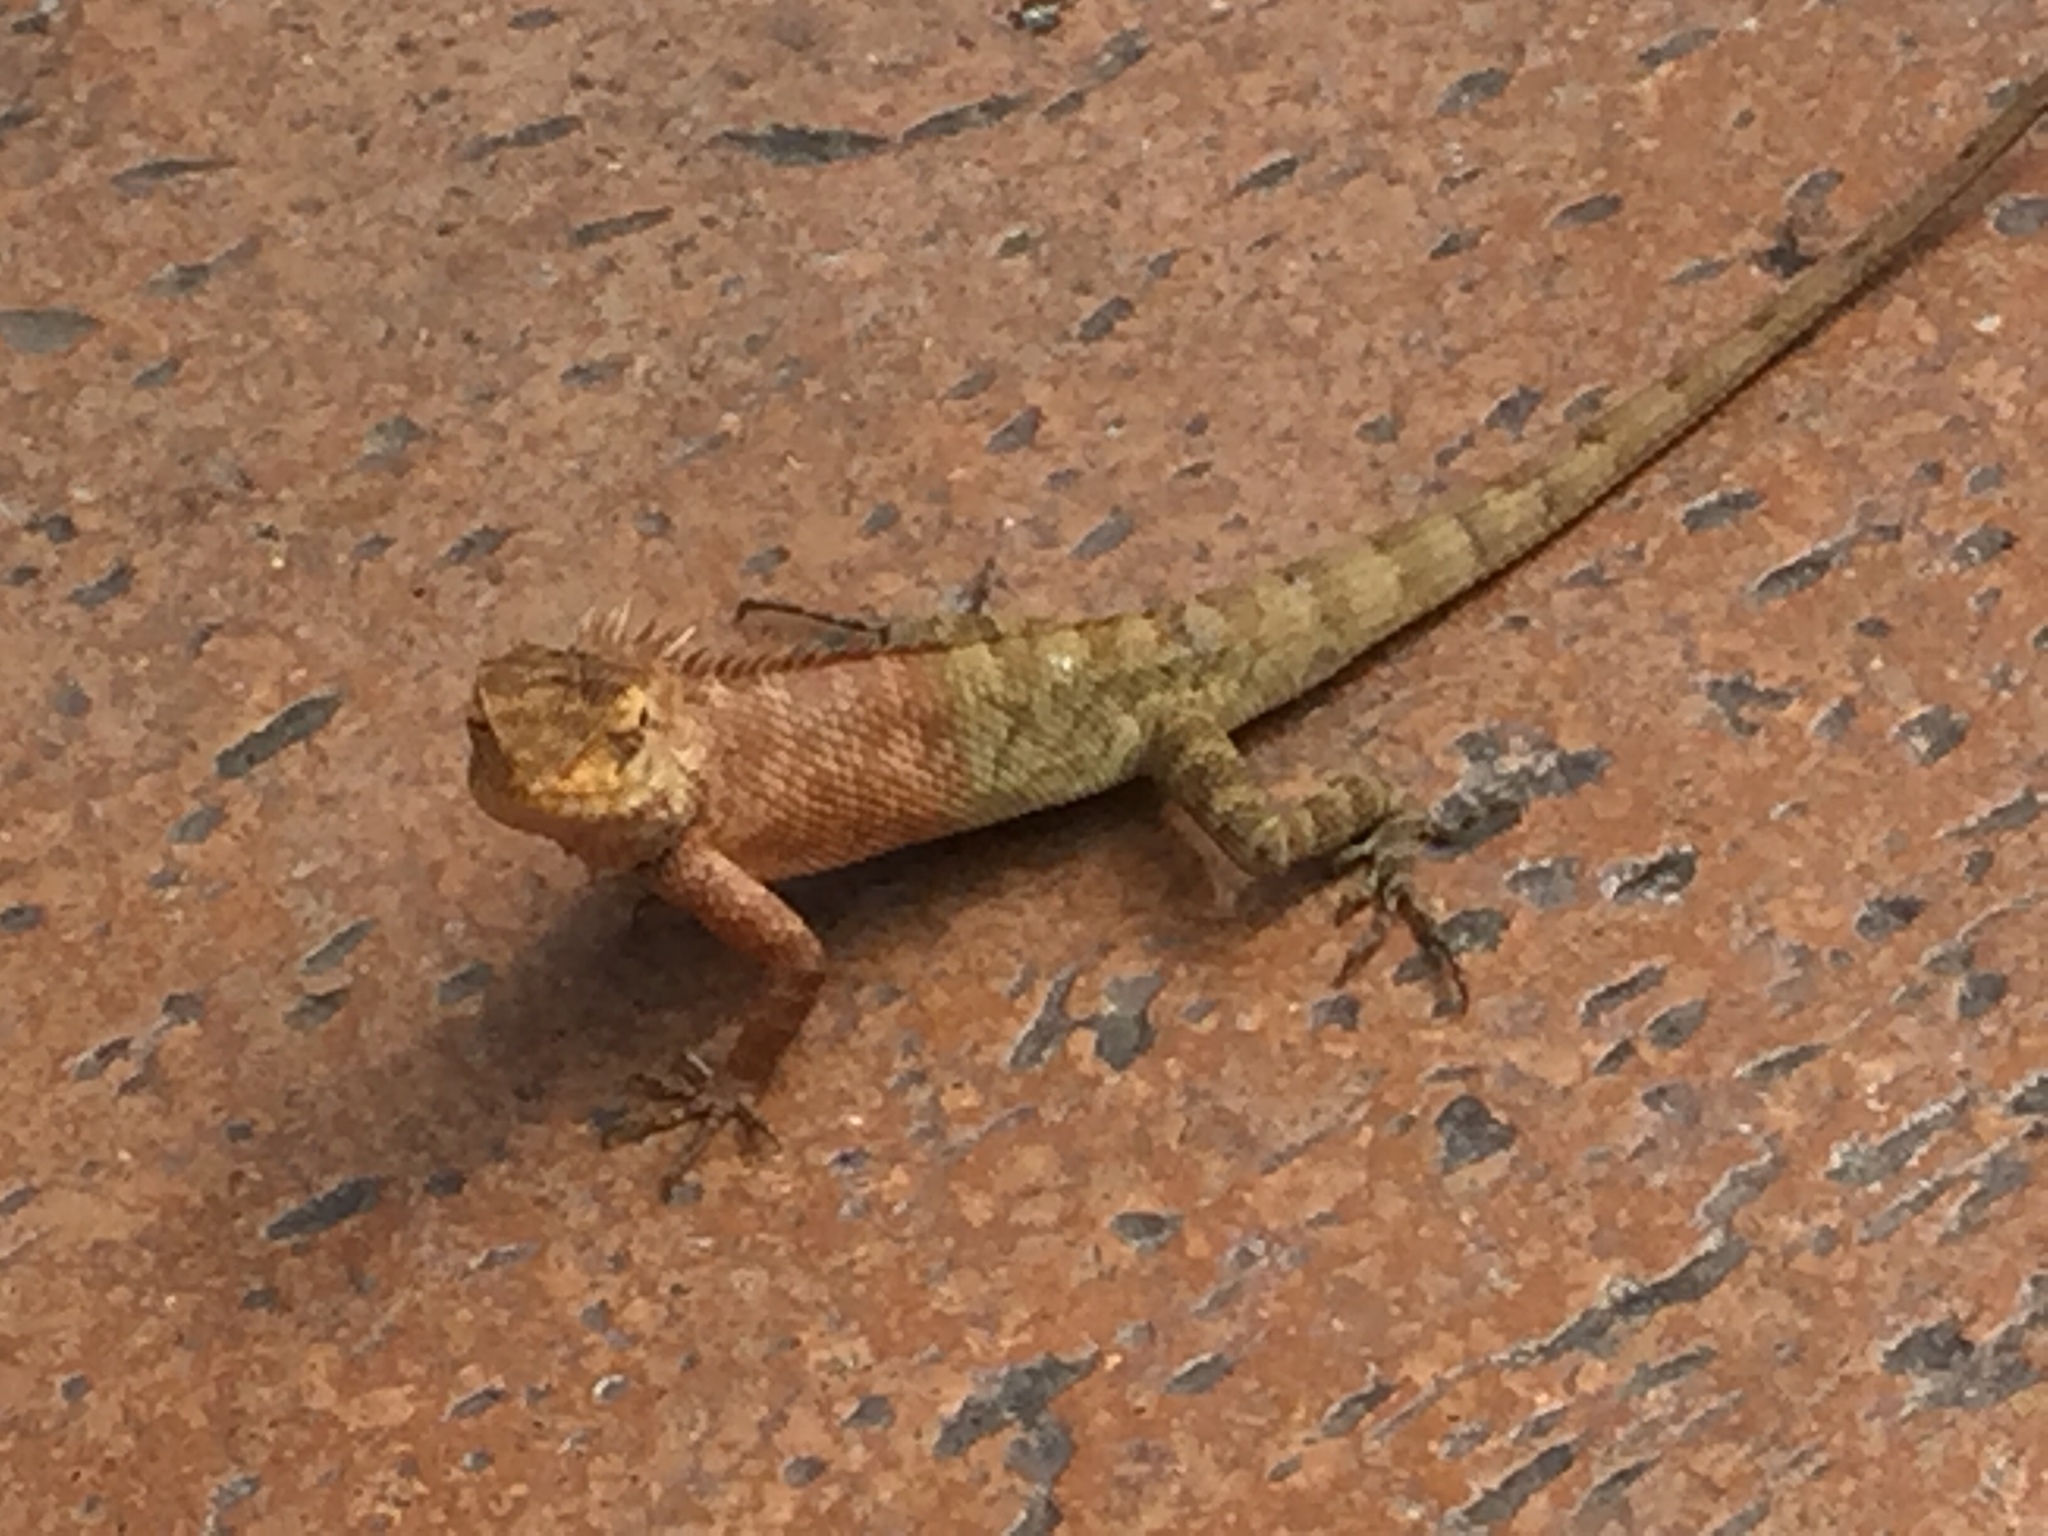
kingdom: Animalia
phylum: Chordata
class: Squamata
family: Agamidae
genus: Calotes
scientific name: Calotes versicolor
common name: Oriental garden lizard
